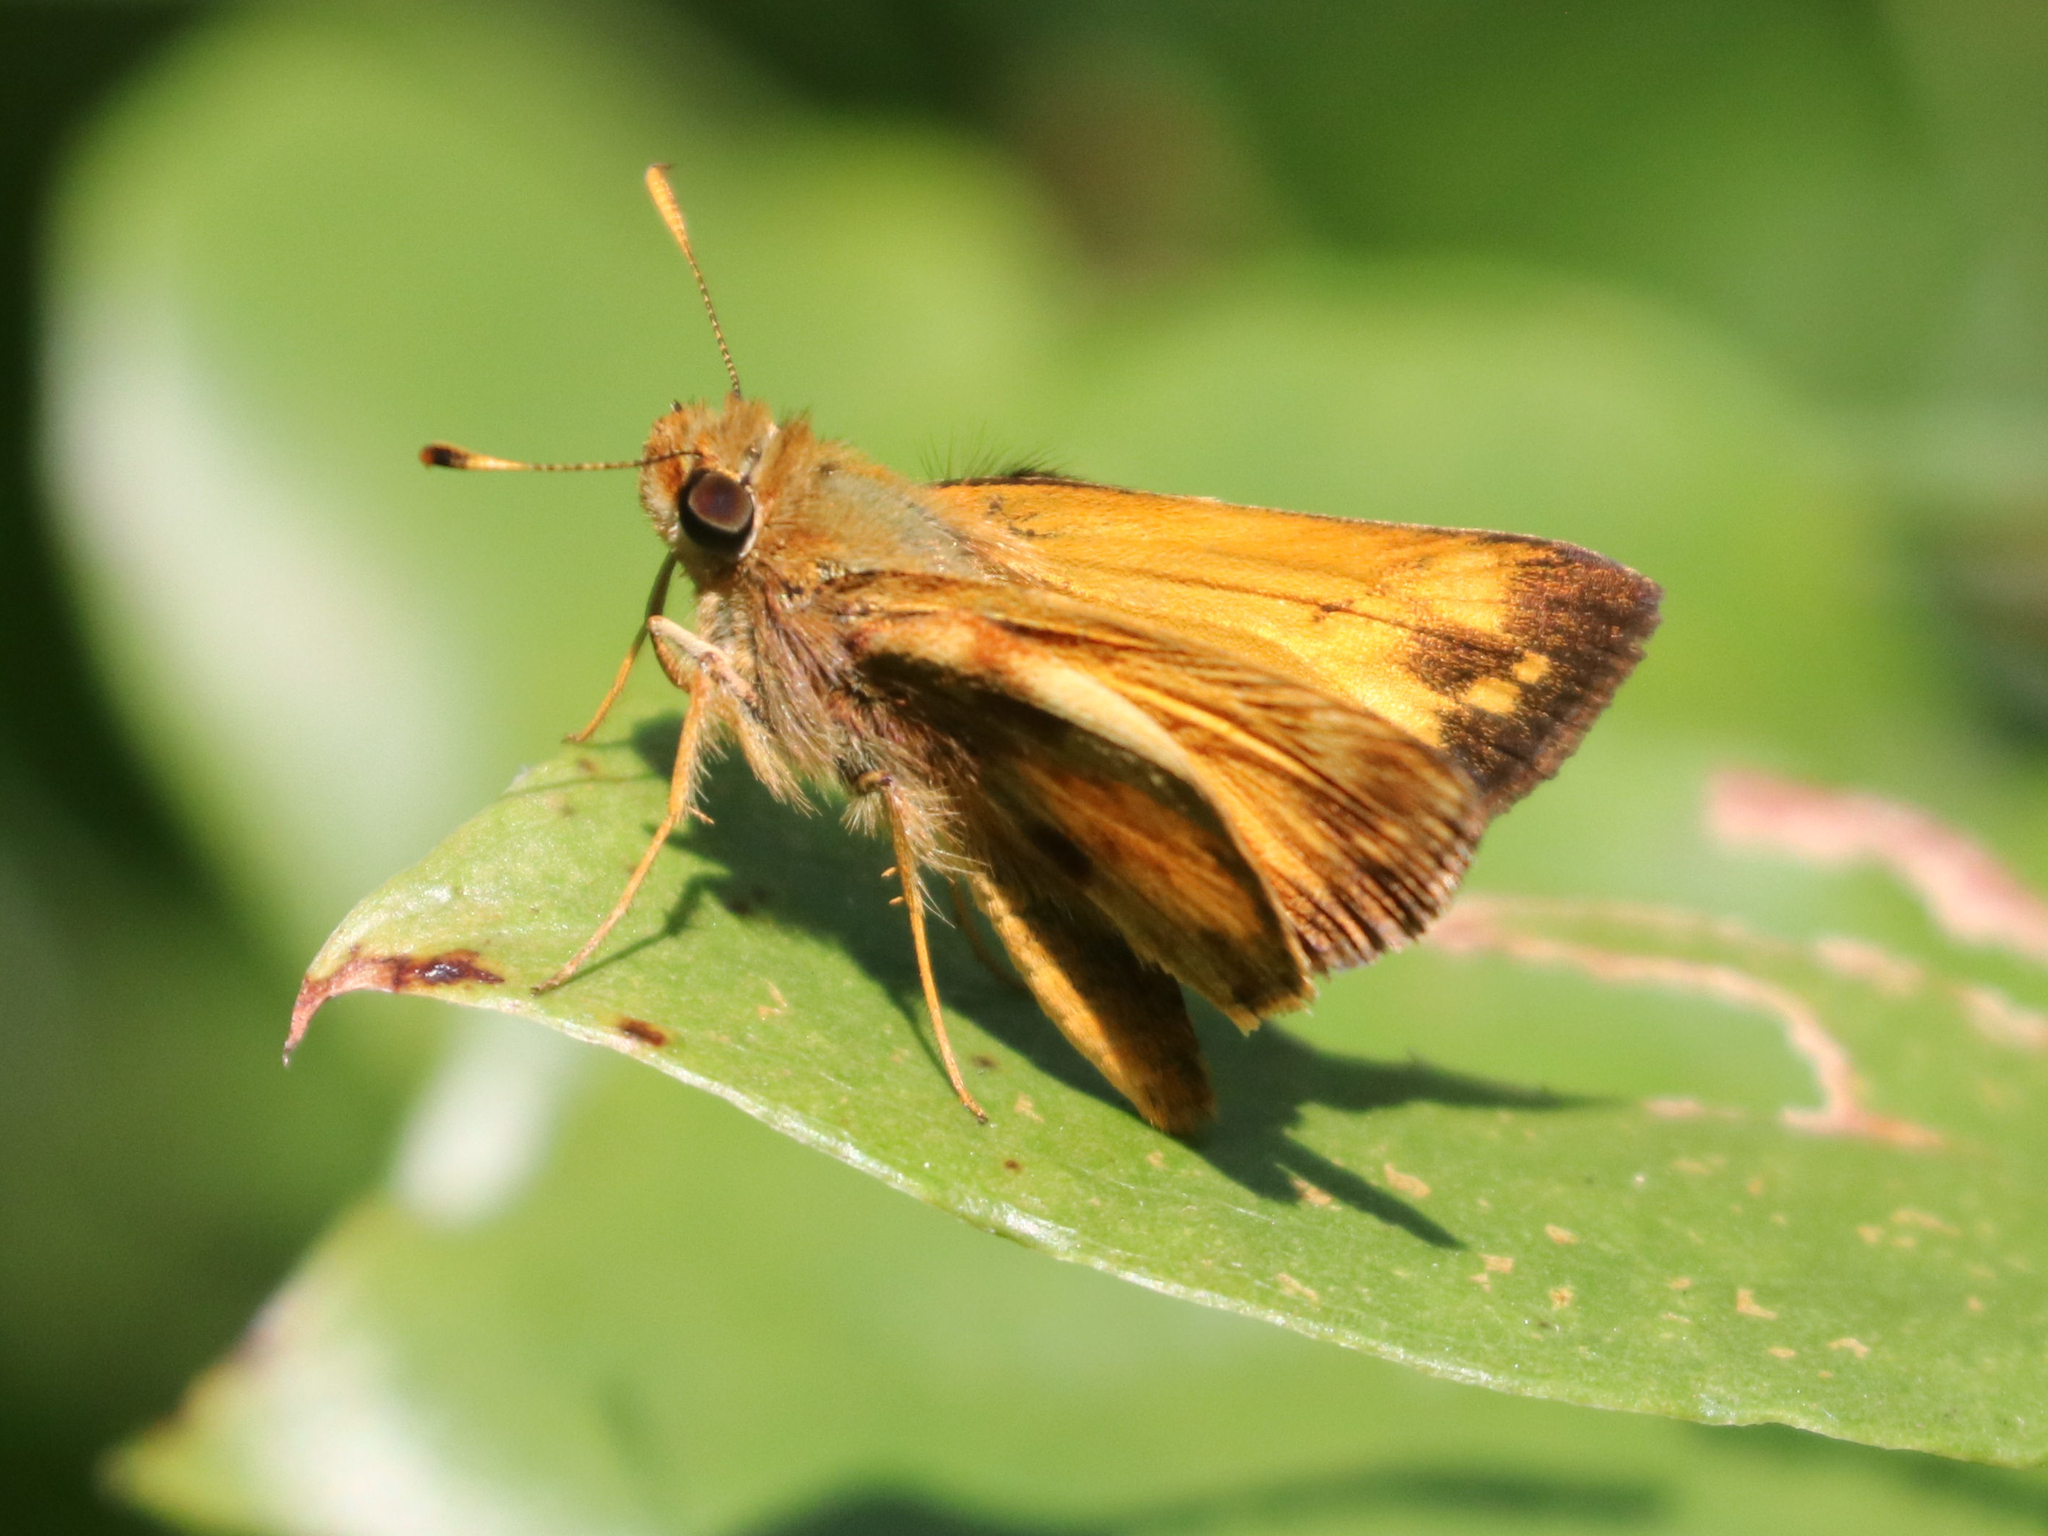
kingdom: Animalia
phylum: Arthropoda
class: Insecta
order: Lepidoptera
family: Hesperiidae
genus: Lon
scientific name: Lon zabulon
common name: Zabulon skipper
